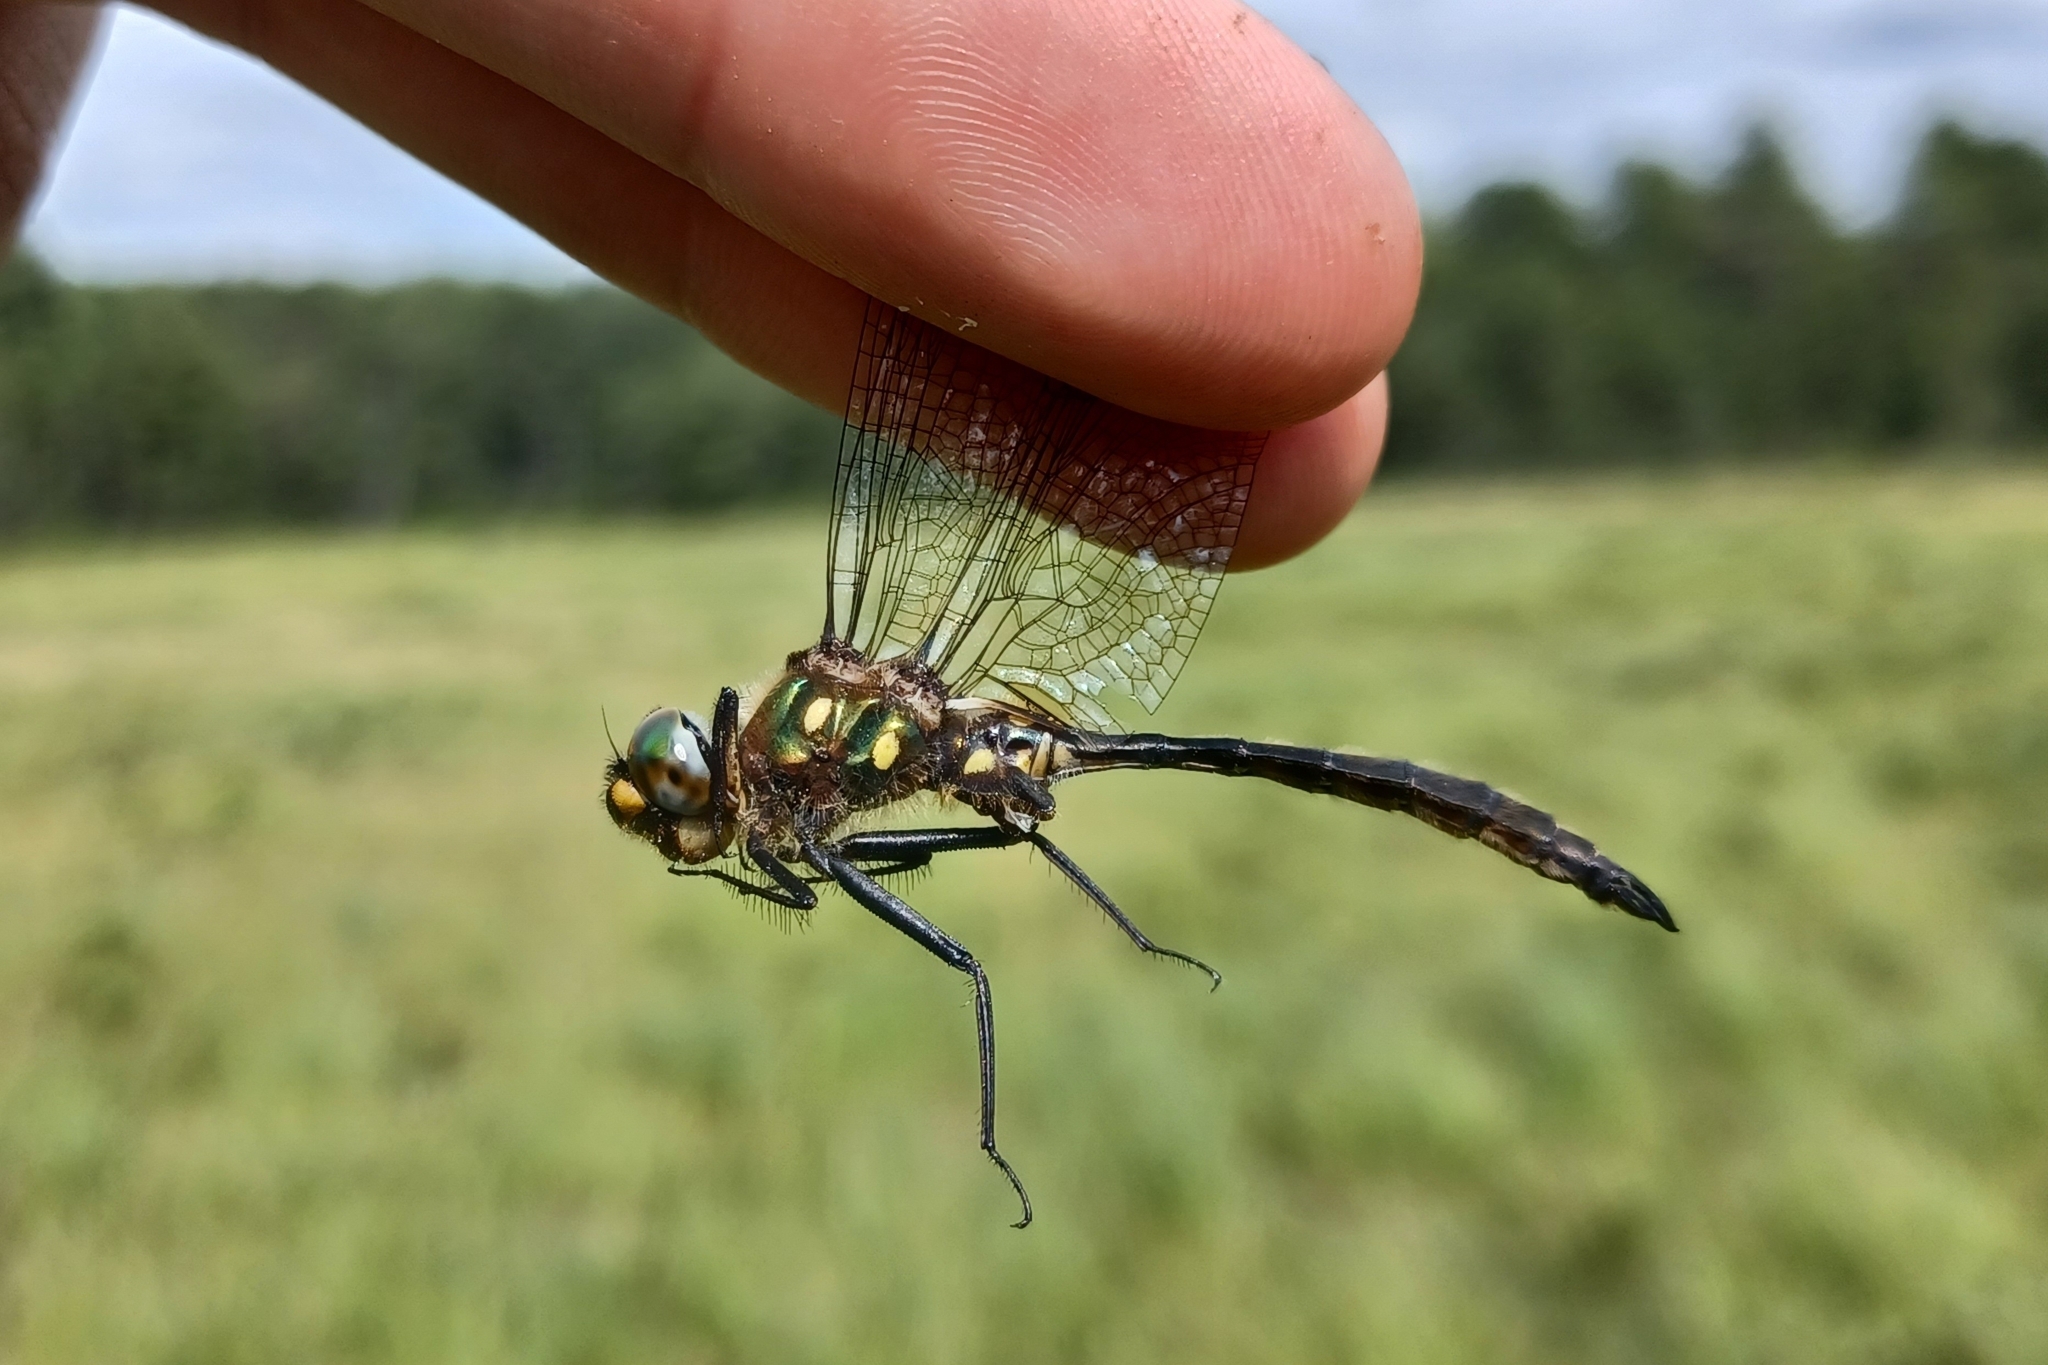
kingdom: Animalia
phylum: Arthropoda
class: Insecta
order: Odonata
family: Corduliidae
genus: Somatochlora
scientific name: Somatochlora minor
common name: Ocellated emerald
